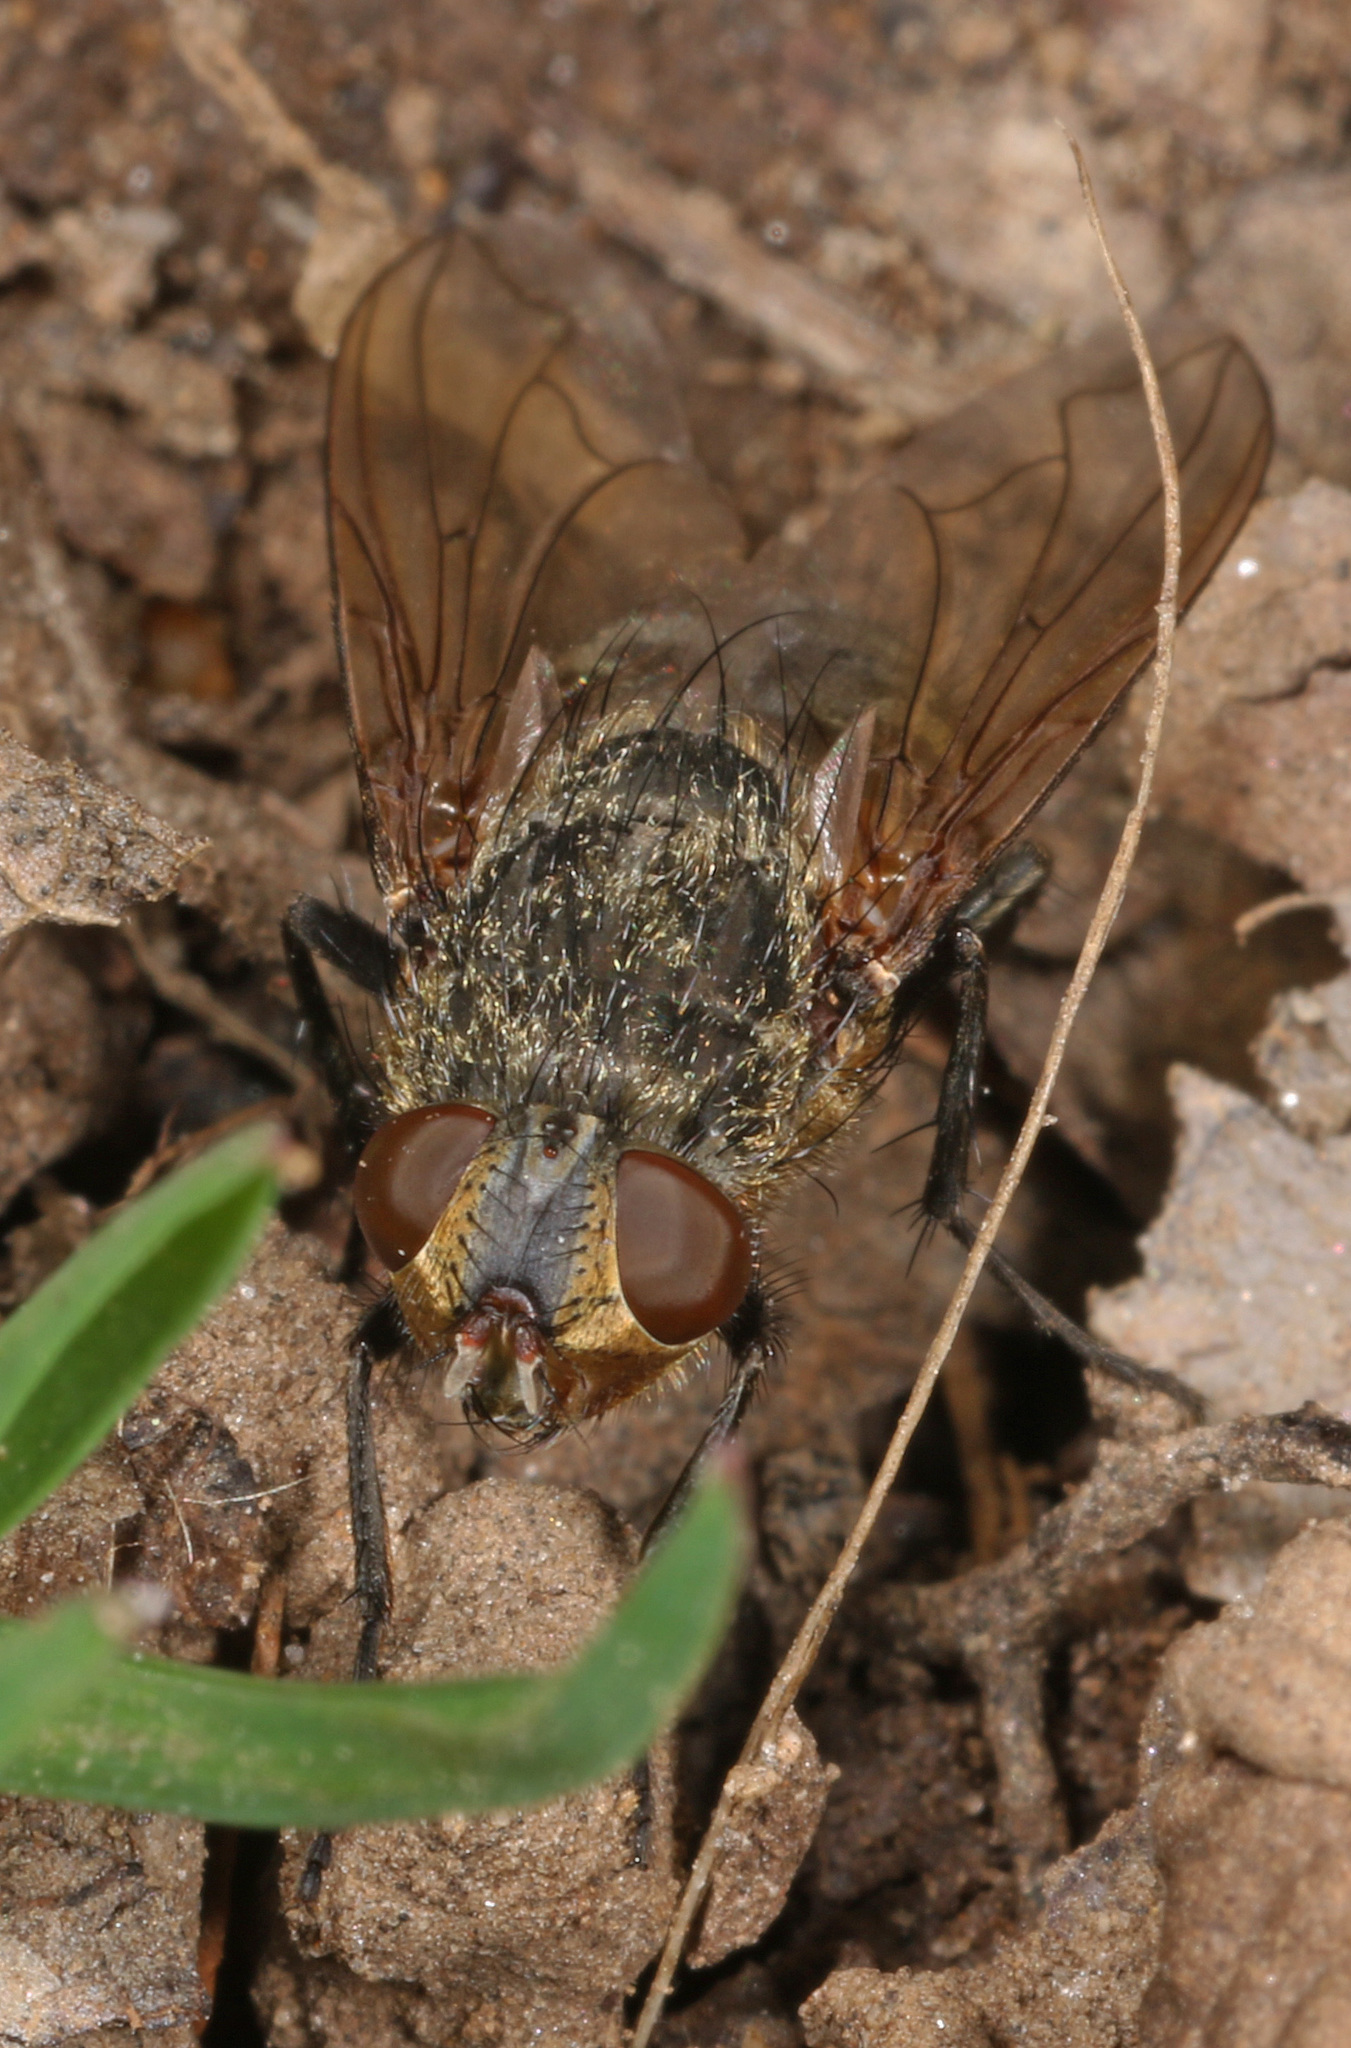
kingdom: Animalia
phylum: Arthropoda
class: Insecta
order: Diptera
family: Polleniidae
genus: Pollenia
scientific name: Pollenia
